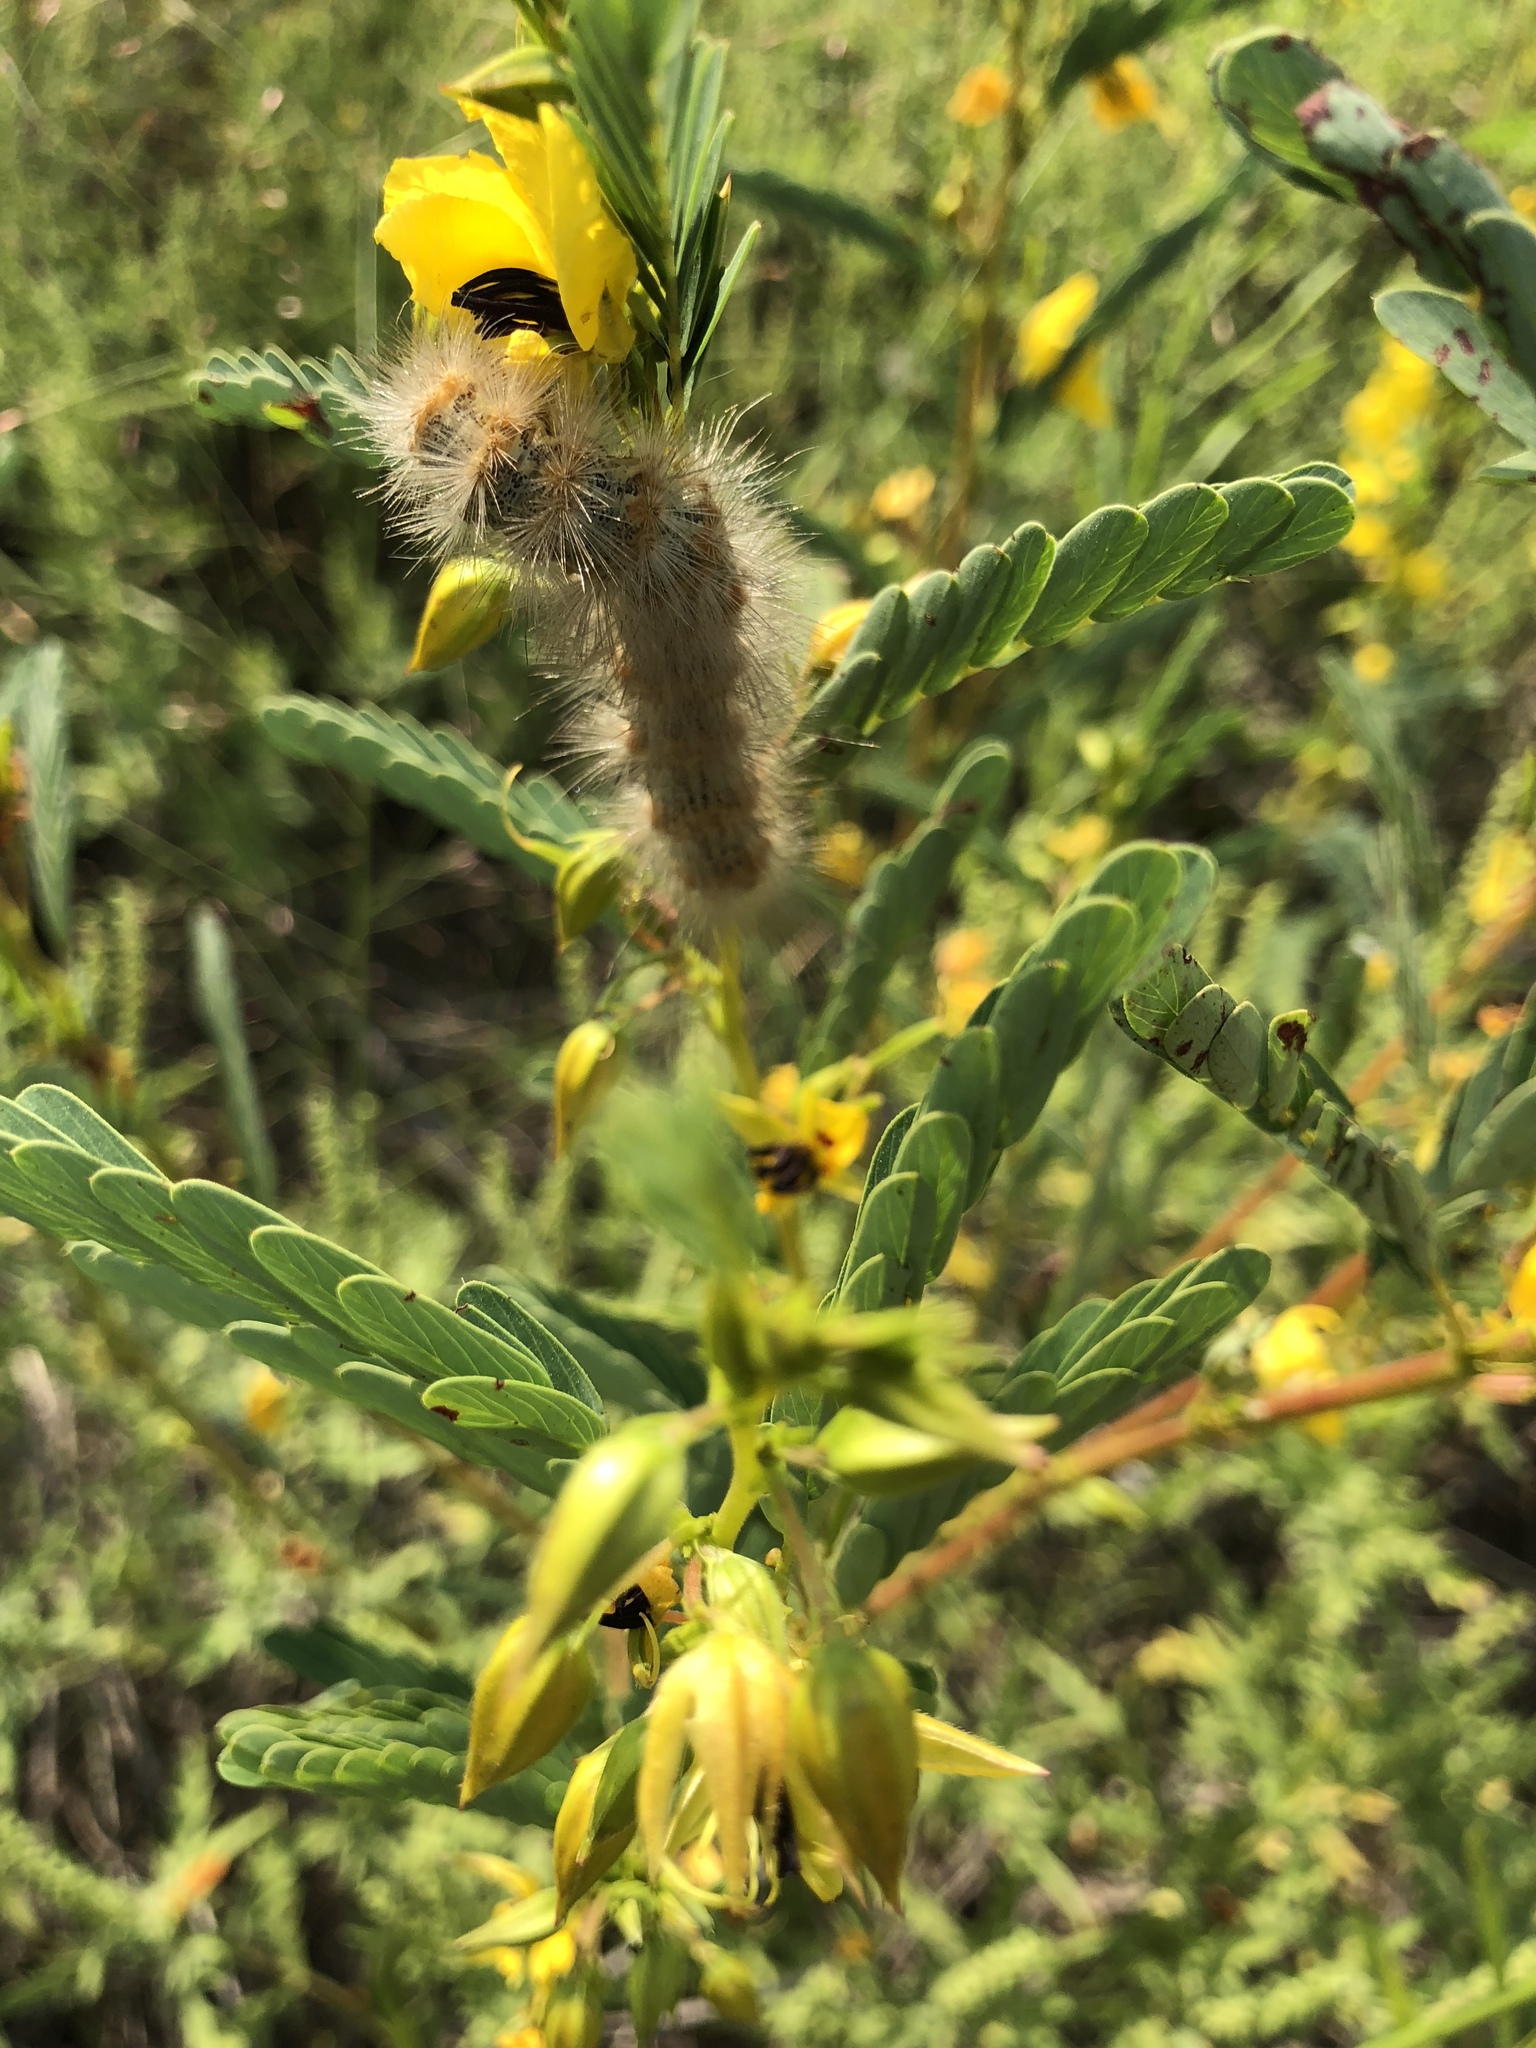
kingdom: Animalia
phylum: Arthropoda
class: Insecta
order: Lepidoptera
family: Erebidae
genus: Estigmene
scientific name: Estigmene acrea
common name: Salt marsh moth
